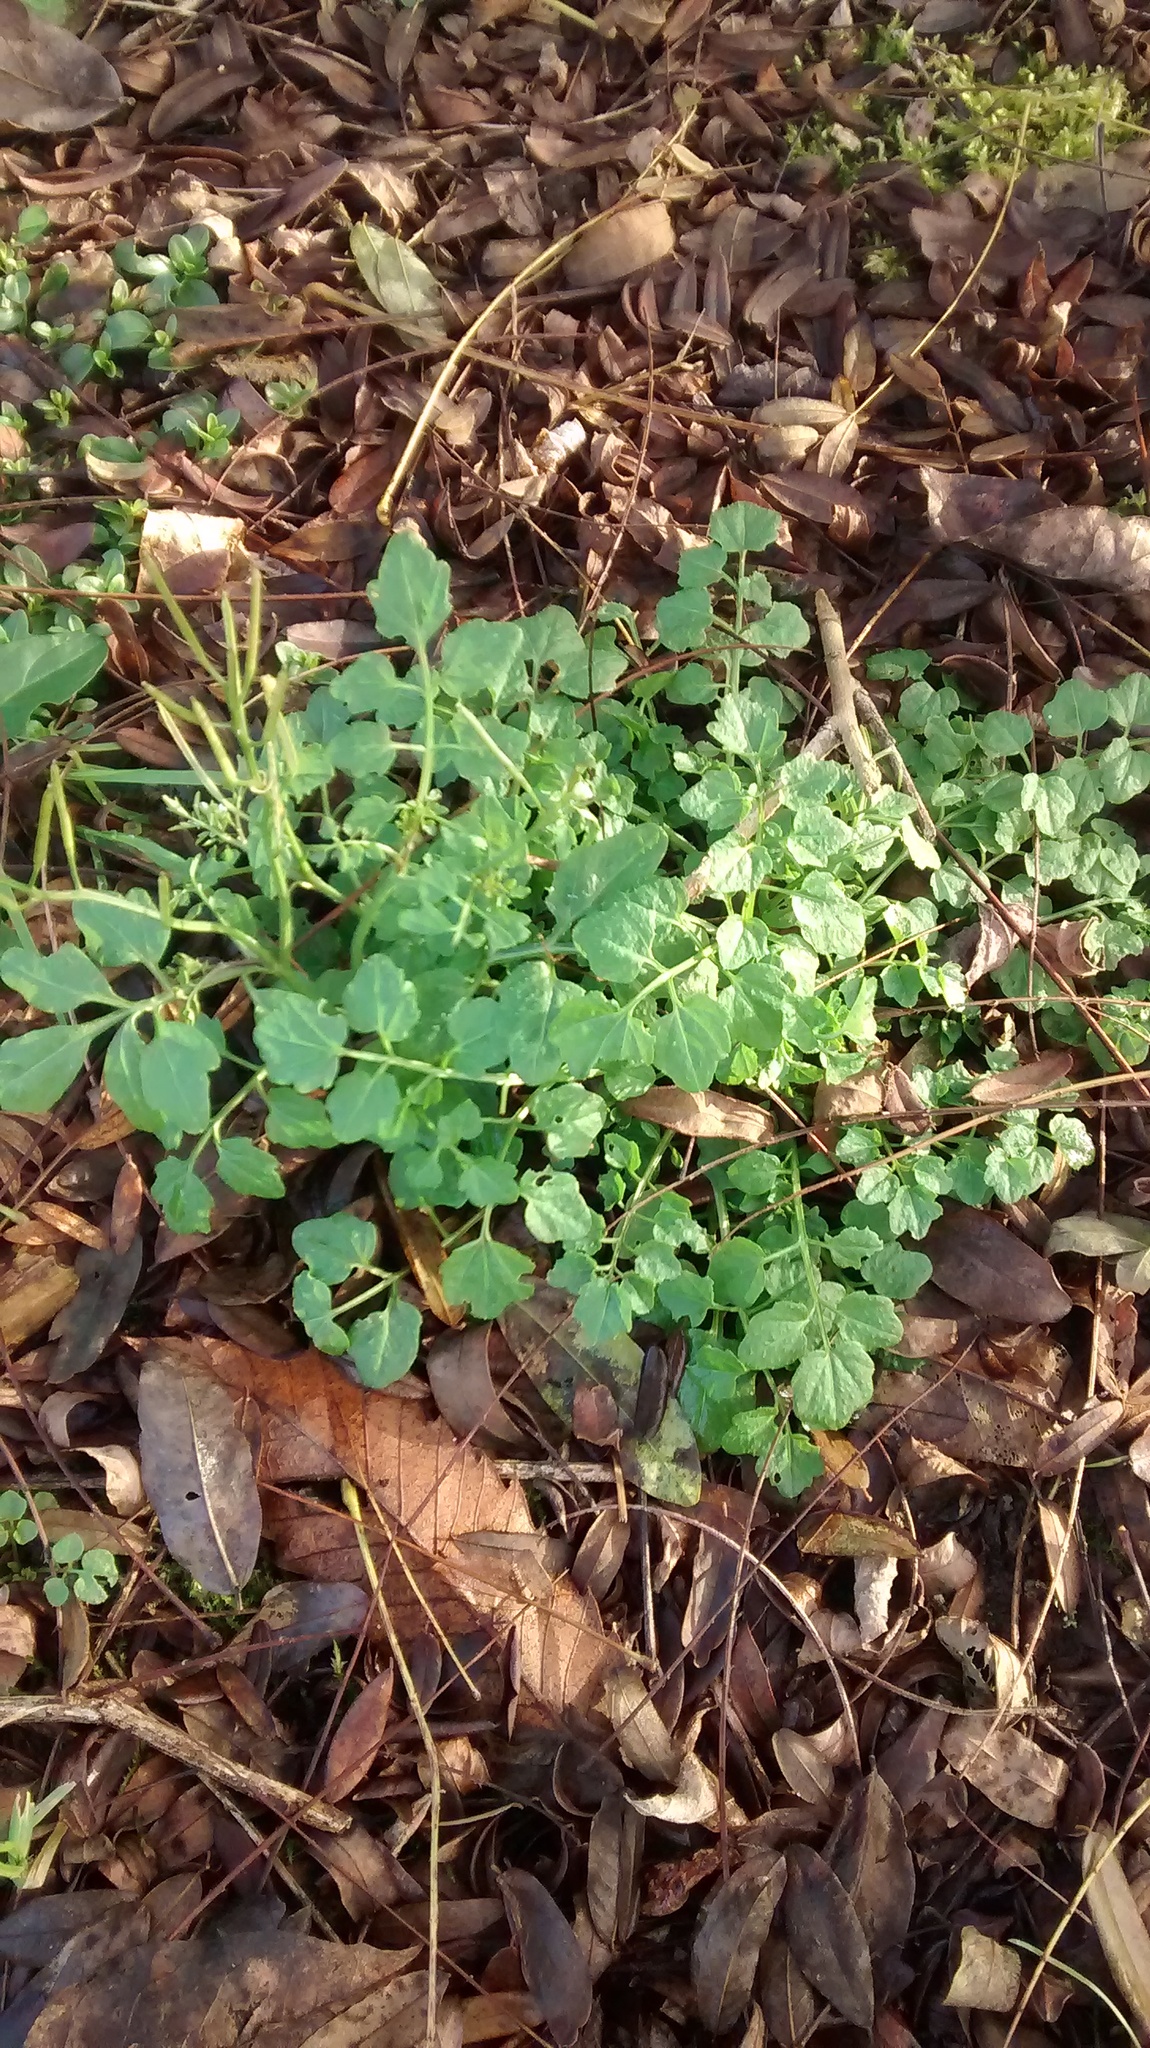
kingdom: Plantae
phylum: Tracheophyta
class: Magnoliopsida
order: Brassicales
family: Brassicaceae
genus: Cardamine
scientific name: Cardamine flexuosa
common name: Woodland bittercress
